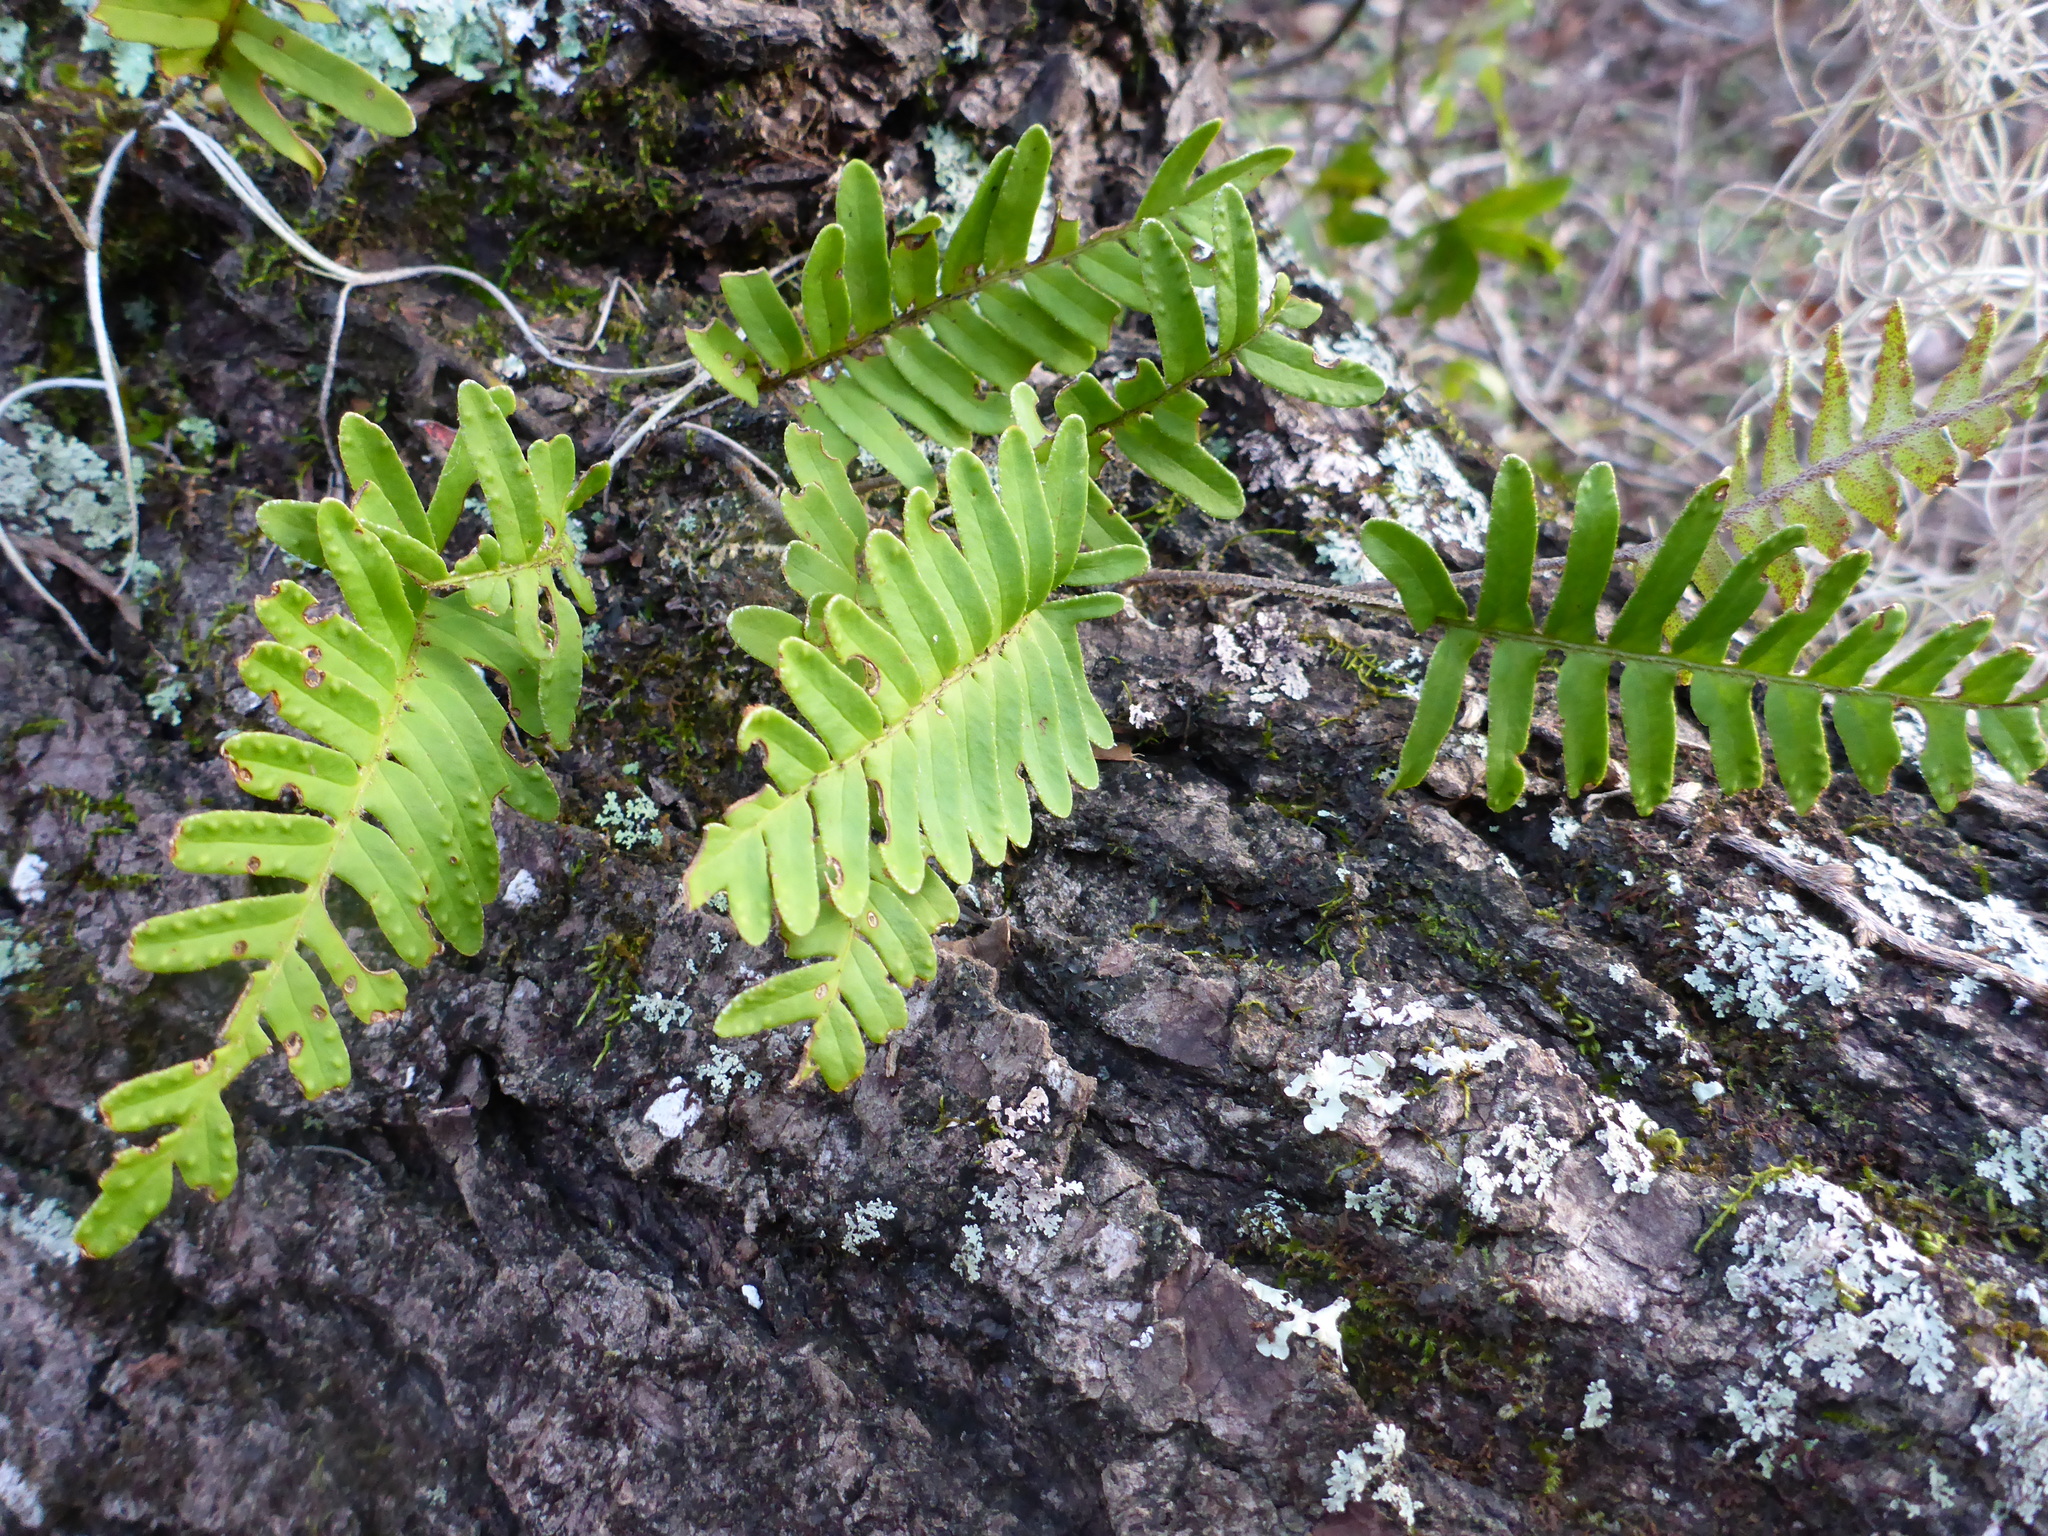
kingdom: Plantae
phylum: Tracheophyta
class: Polypodiopsida
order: Polypodiales
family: Polypodiaceae
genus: Pleopeltis
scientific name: Pleopeltis michauxiana
